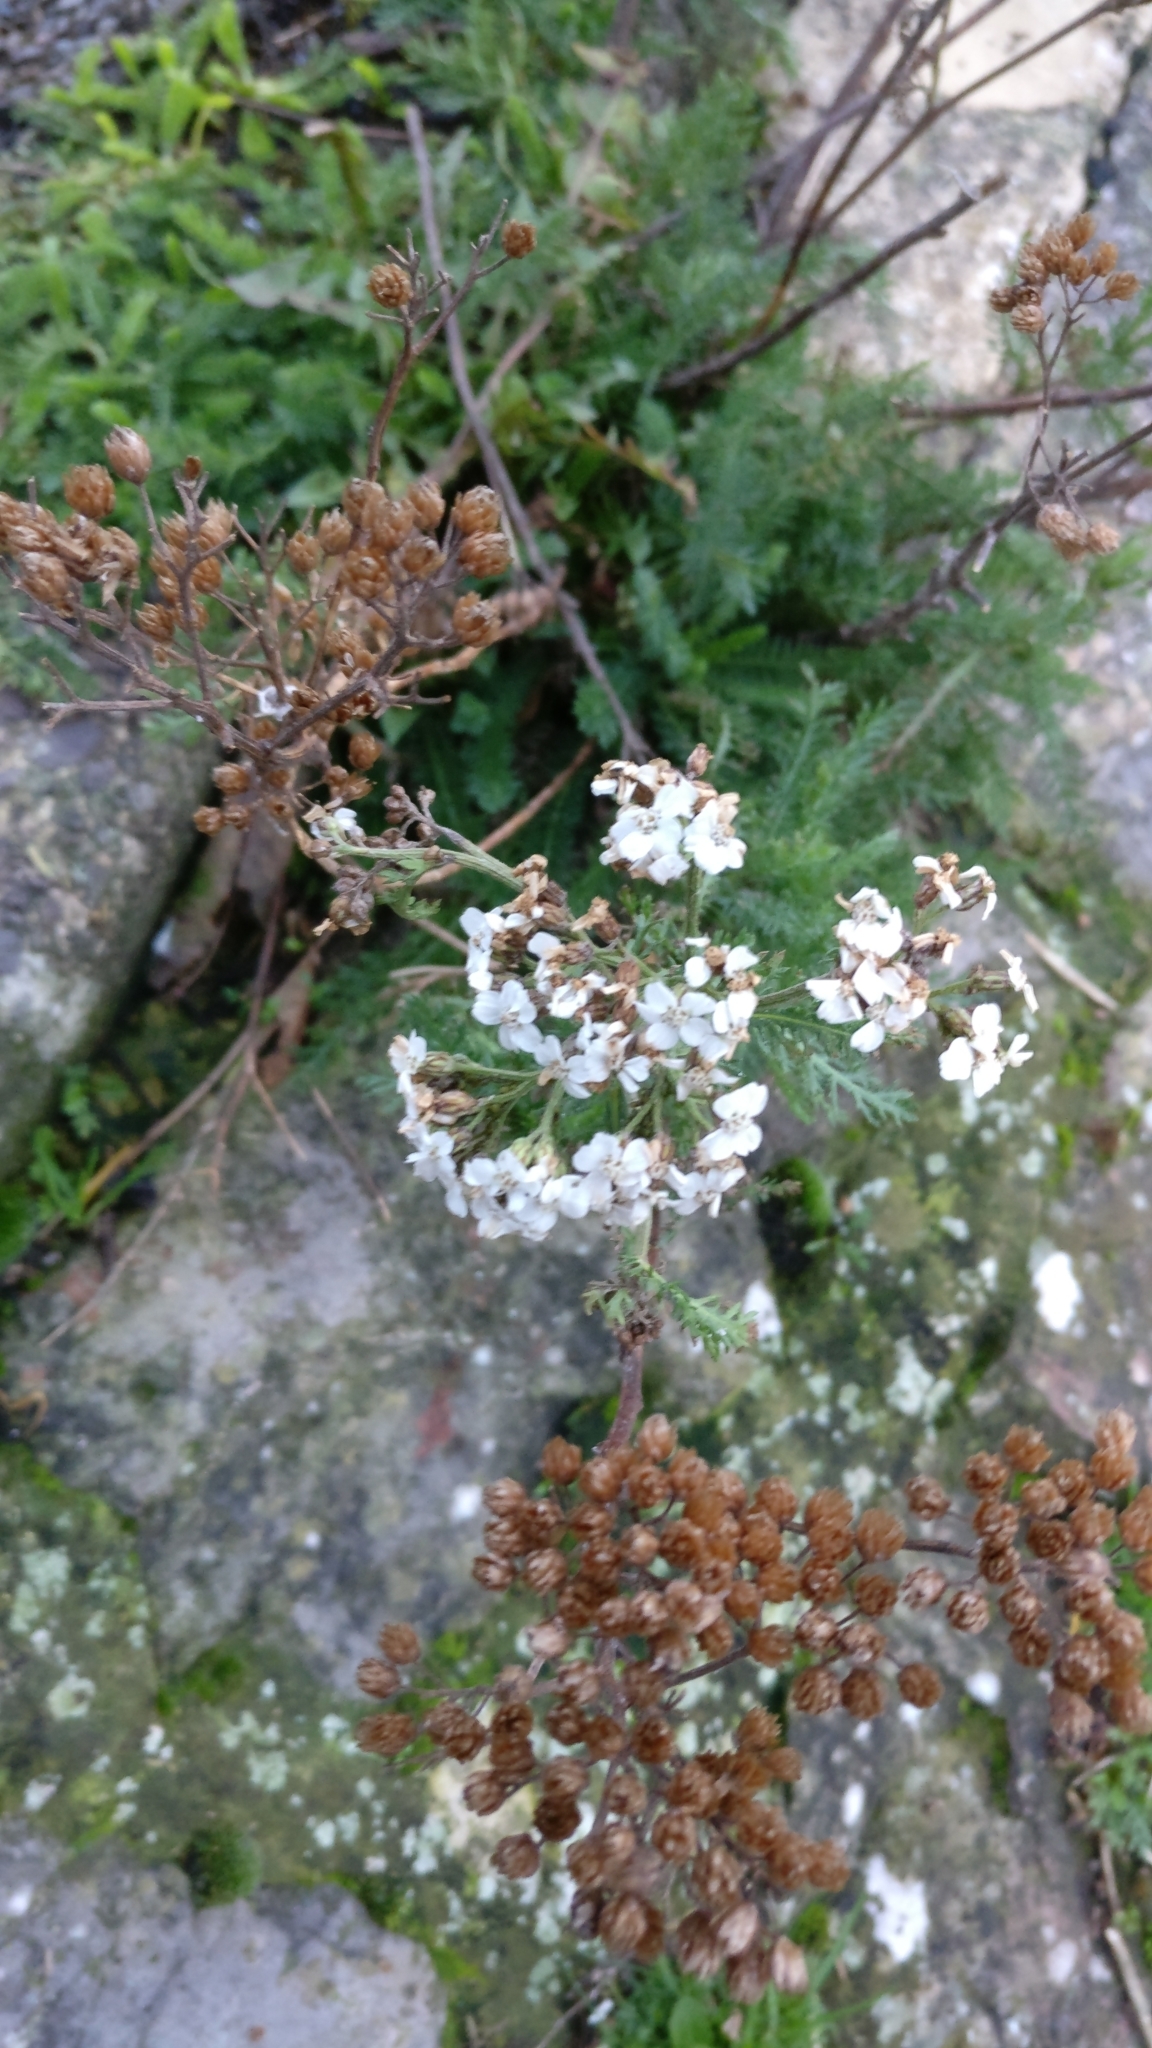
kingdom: Plantae
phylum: Tracheophyta
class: Magnoliopsida
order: Asterales
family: Asteraceae
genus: Achillea
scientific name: Achillea millefolium
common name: Yarrow
